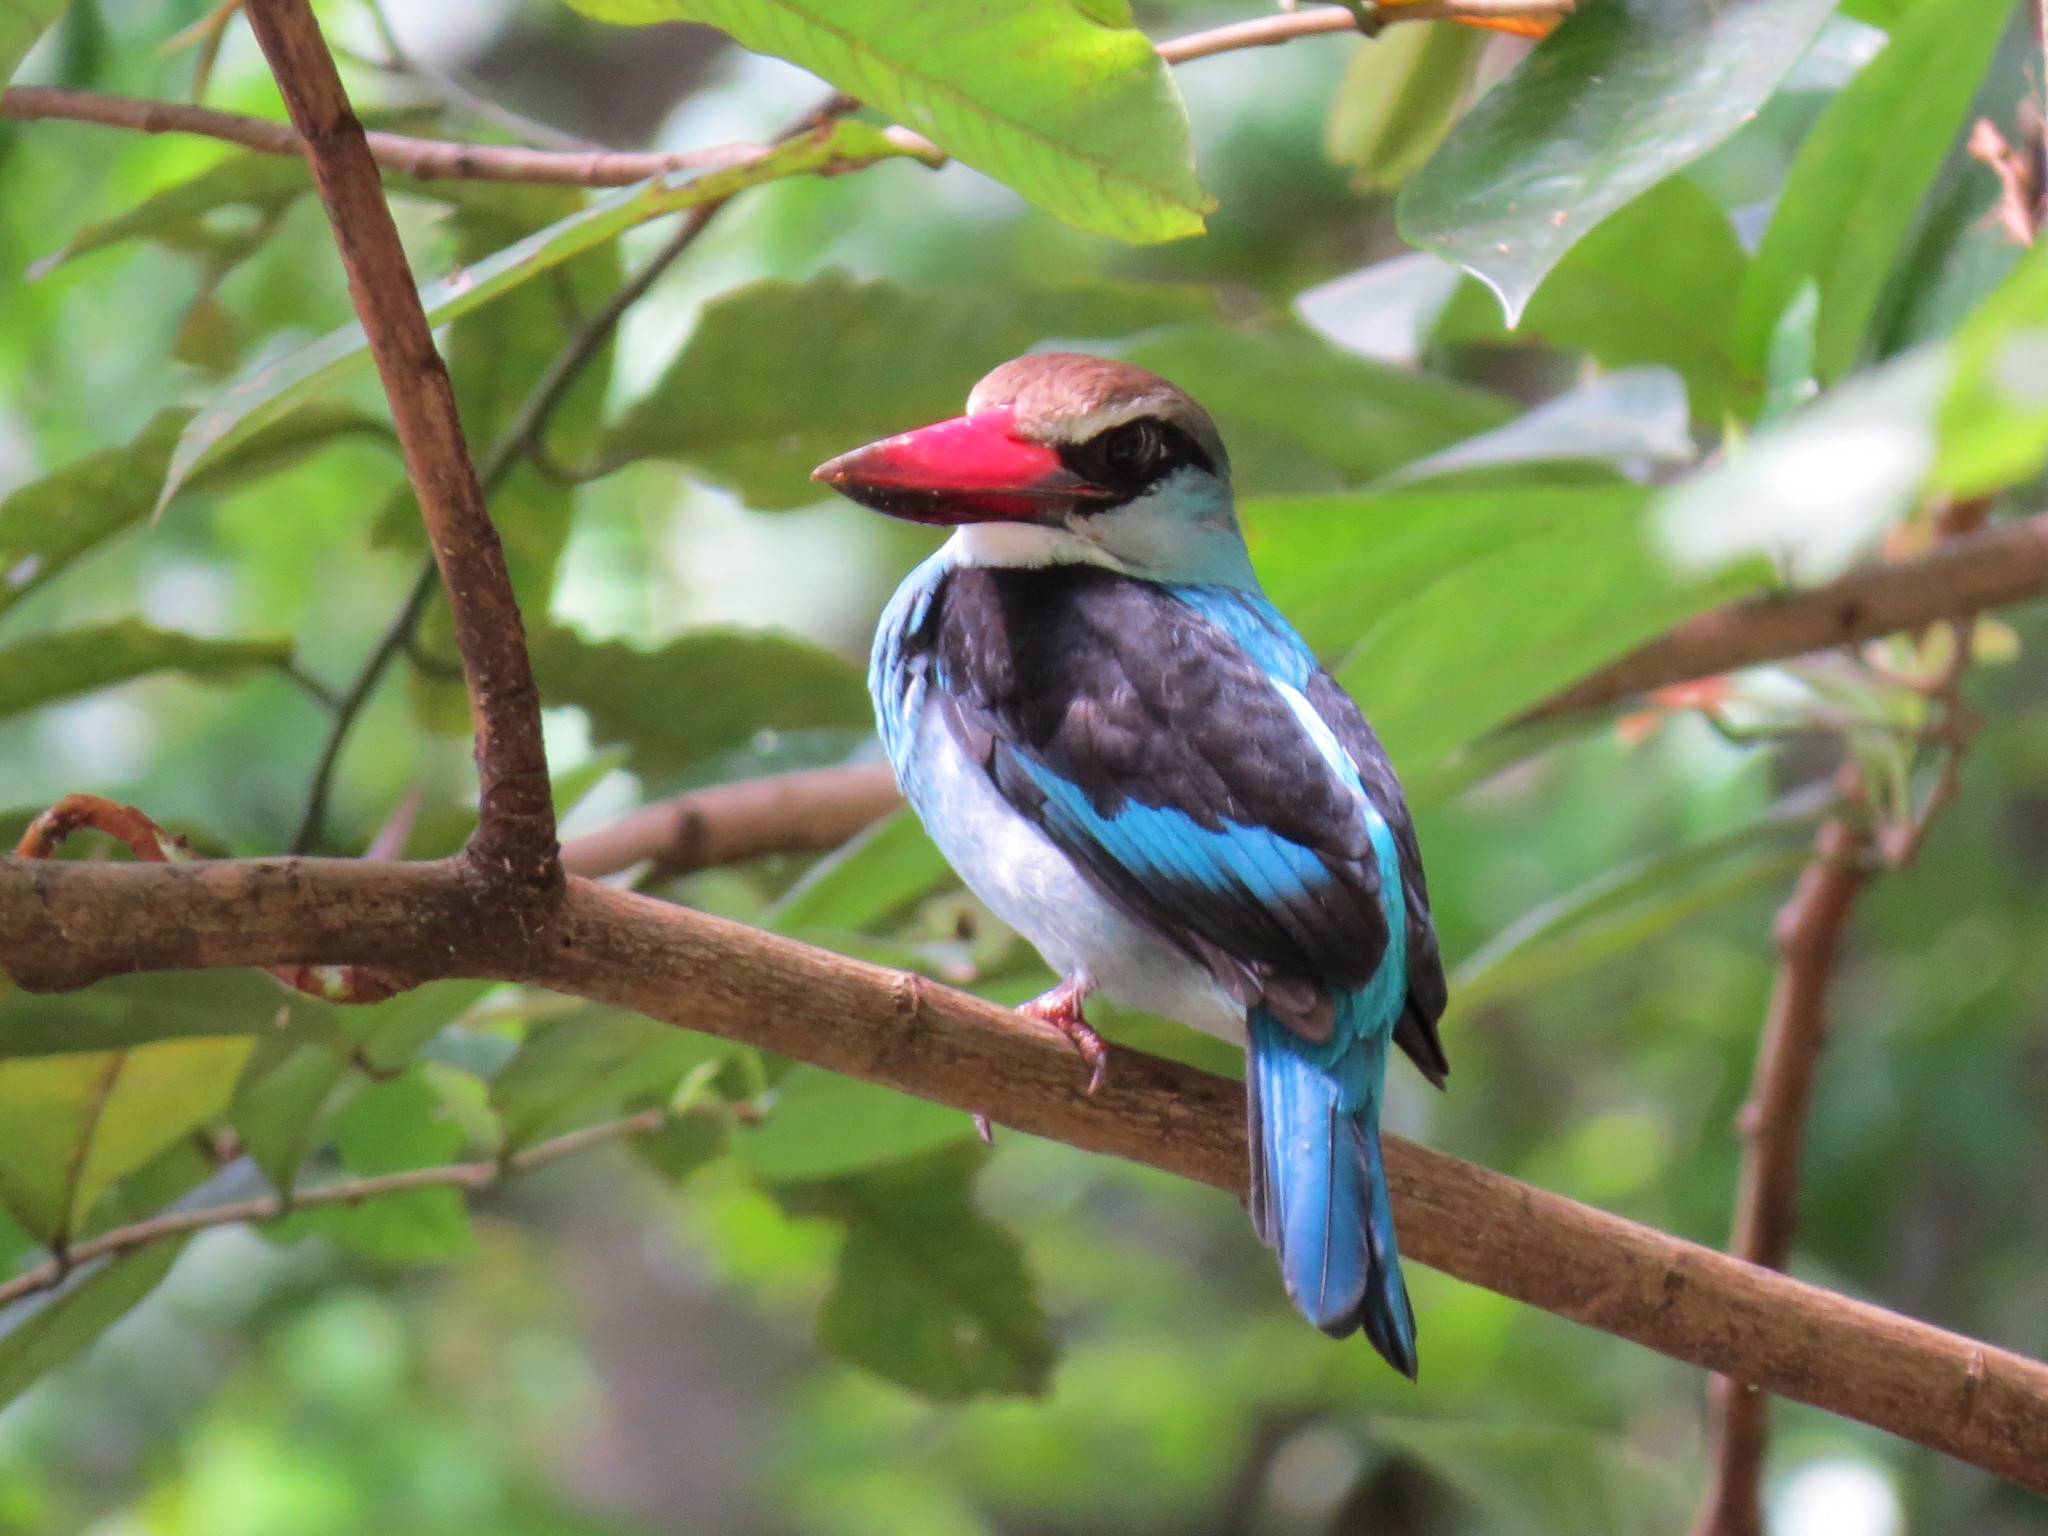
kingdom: Animalia
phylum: Chordata
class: Aves
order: Coraciiformes
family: Alcedinidae
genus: Halcyon
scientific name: Halcyon malimbica
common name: Blue-breasted kingfisher
